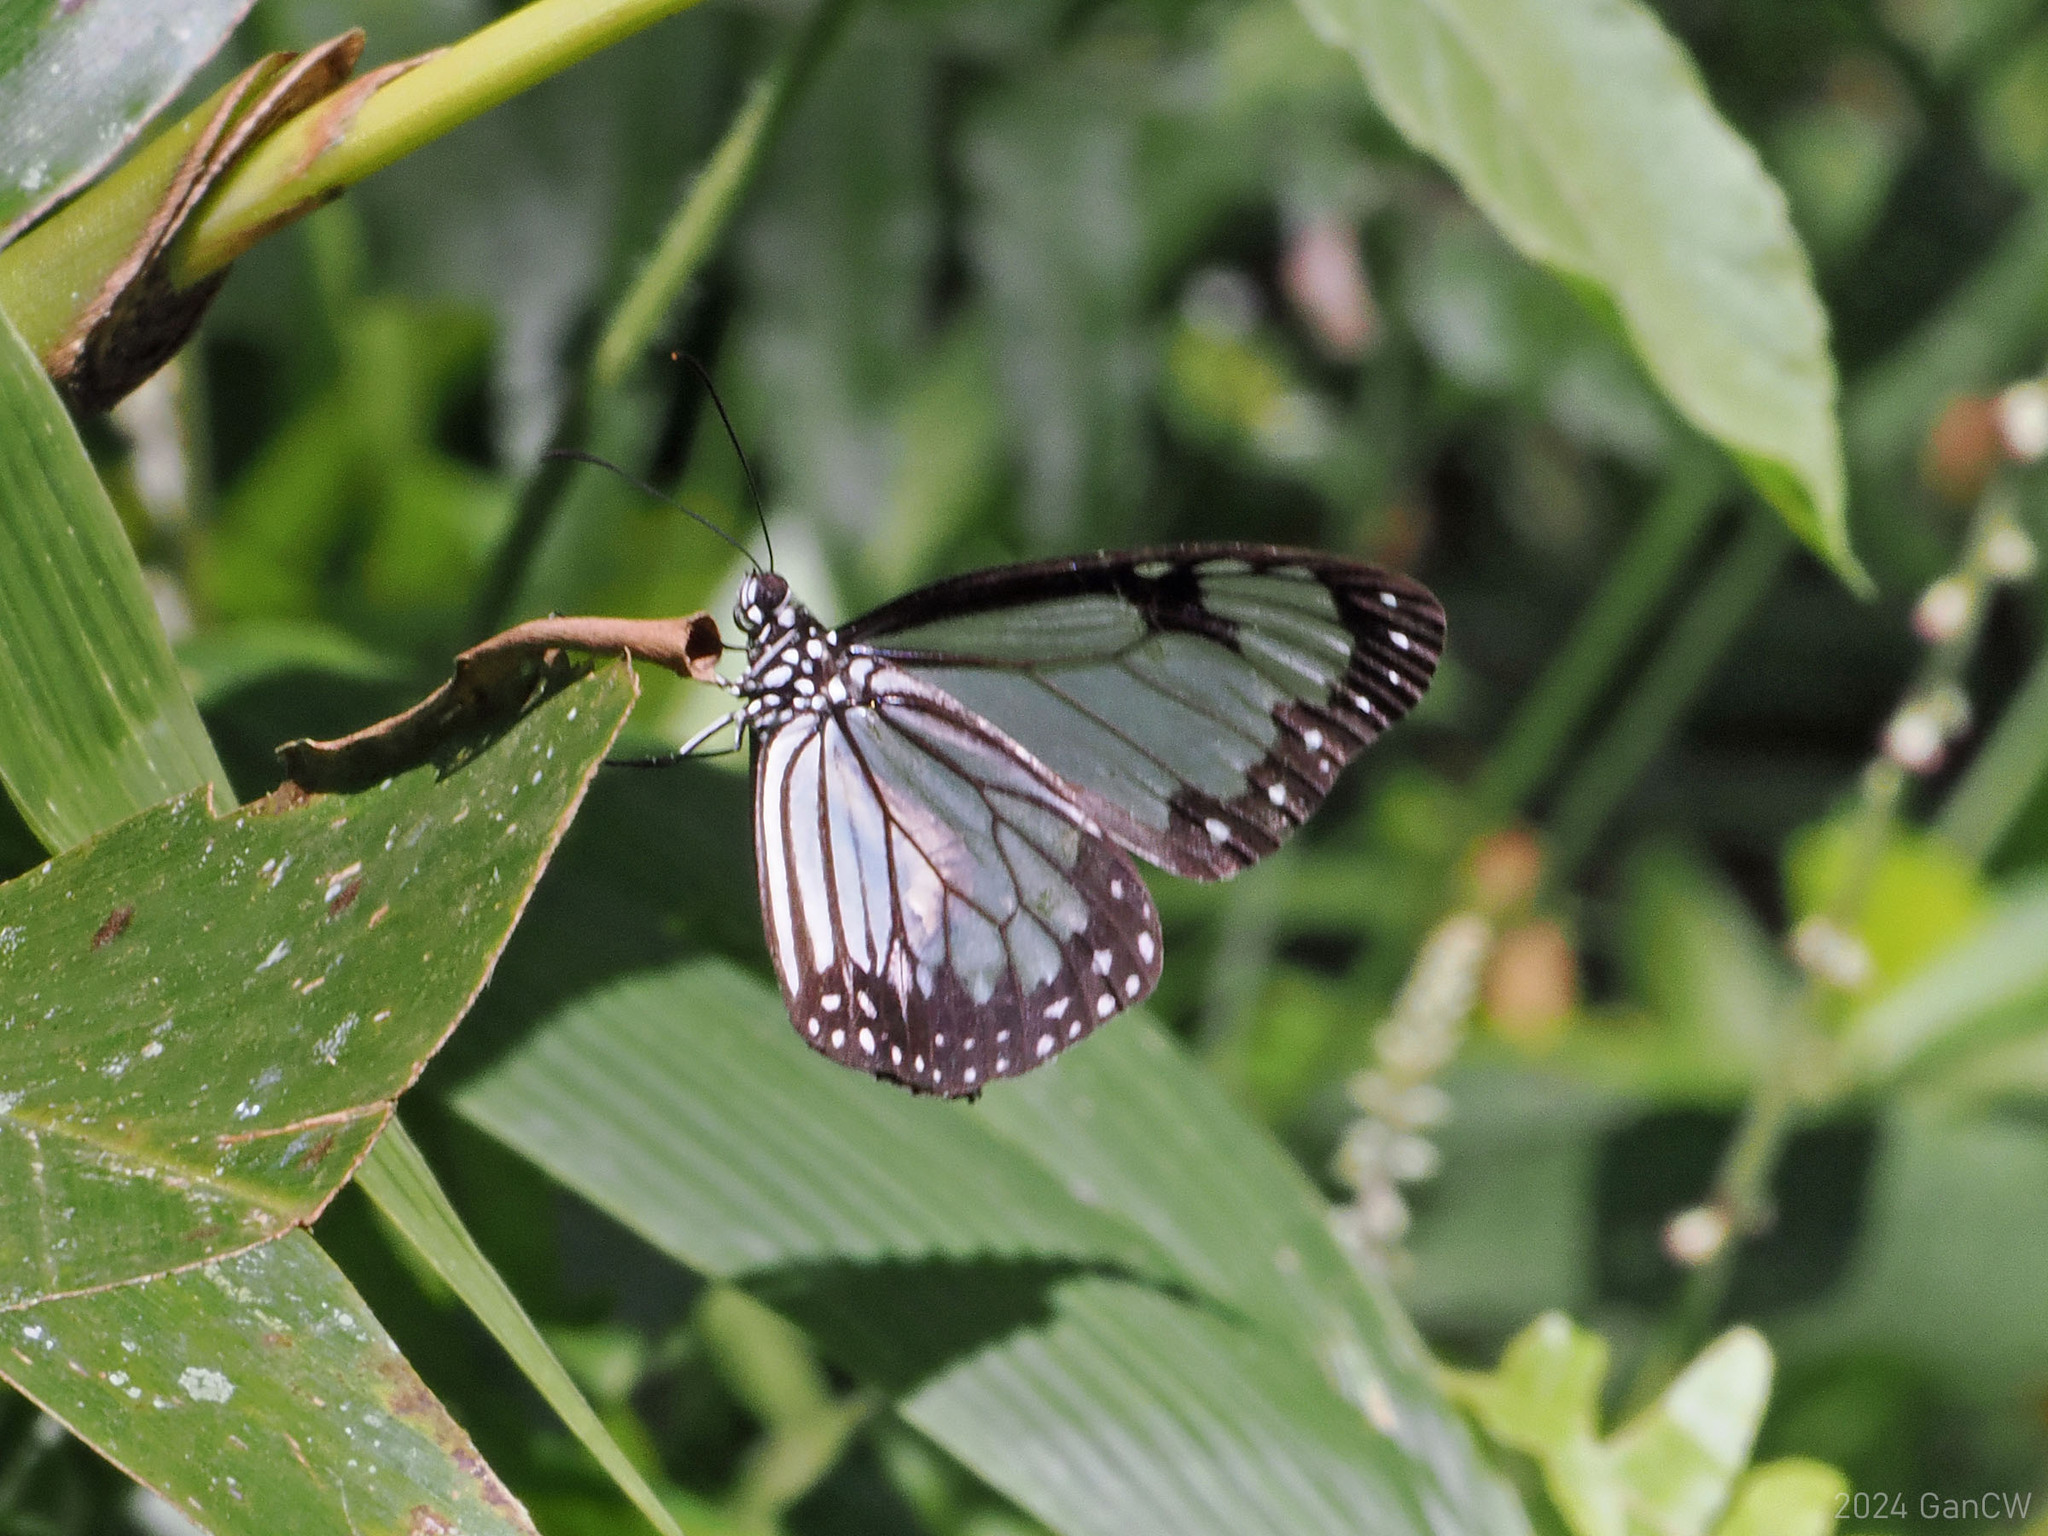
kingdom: Animalia
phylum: Arthropoda
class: Insecta
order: Lepidoptera
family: Nymphalidae
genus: Parantica
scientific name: Parantica vitrina
